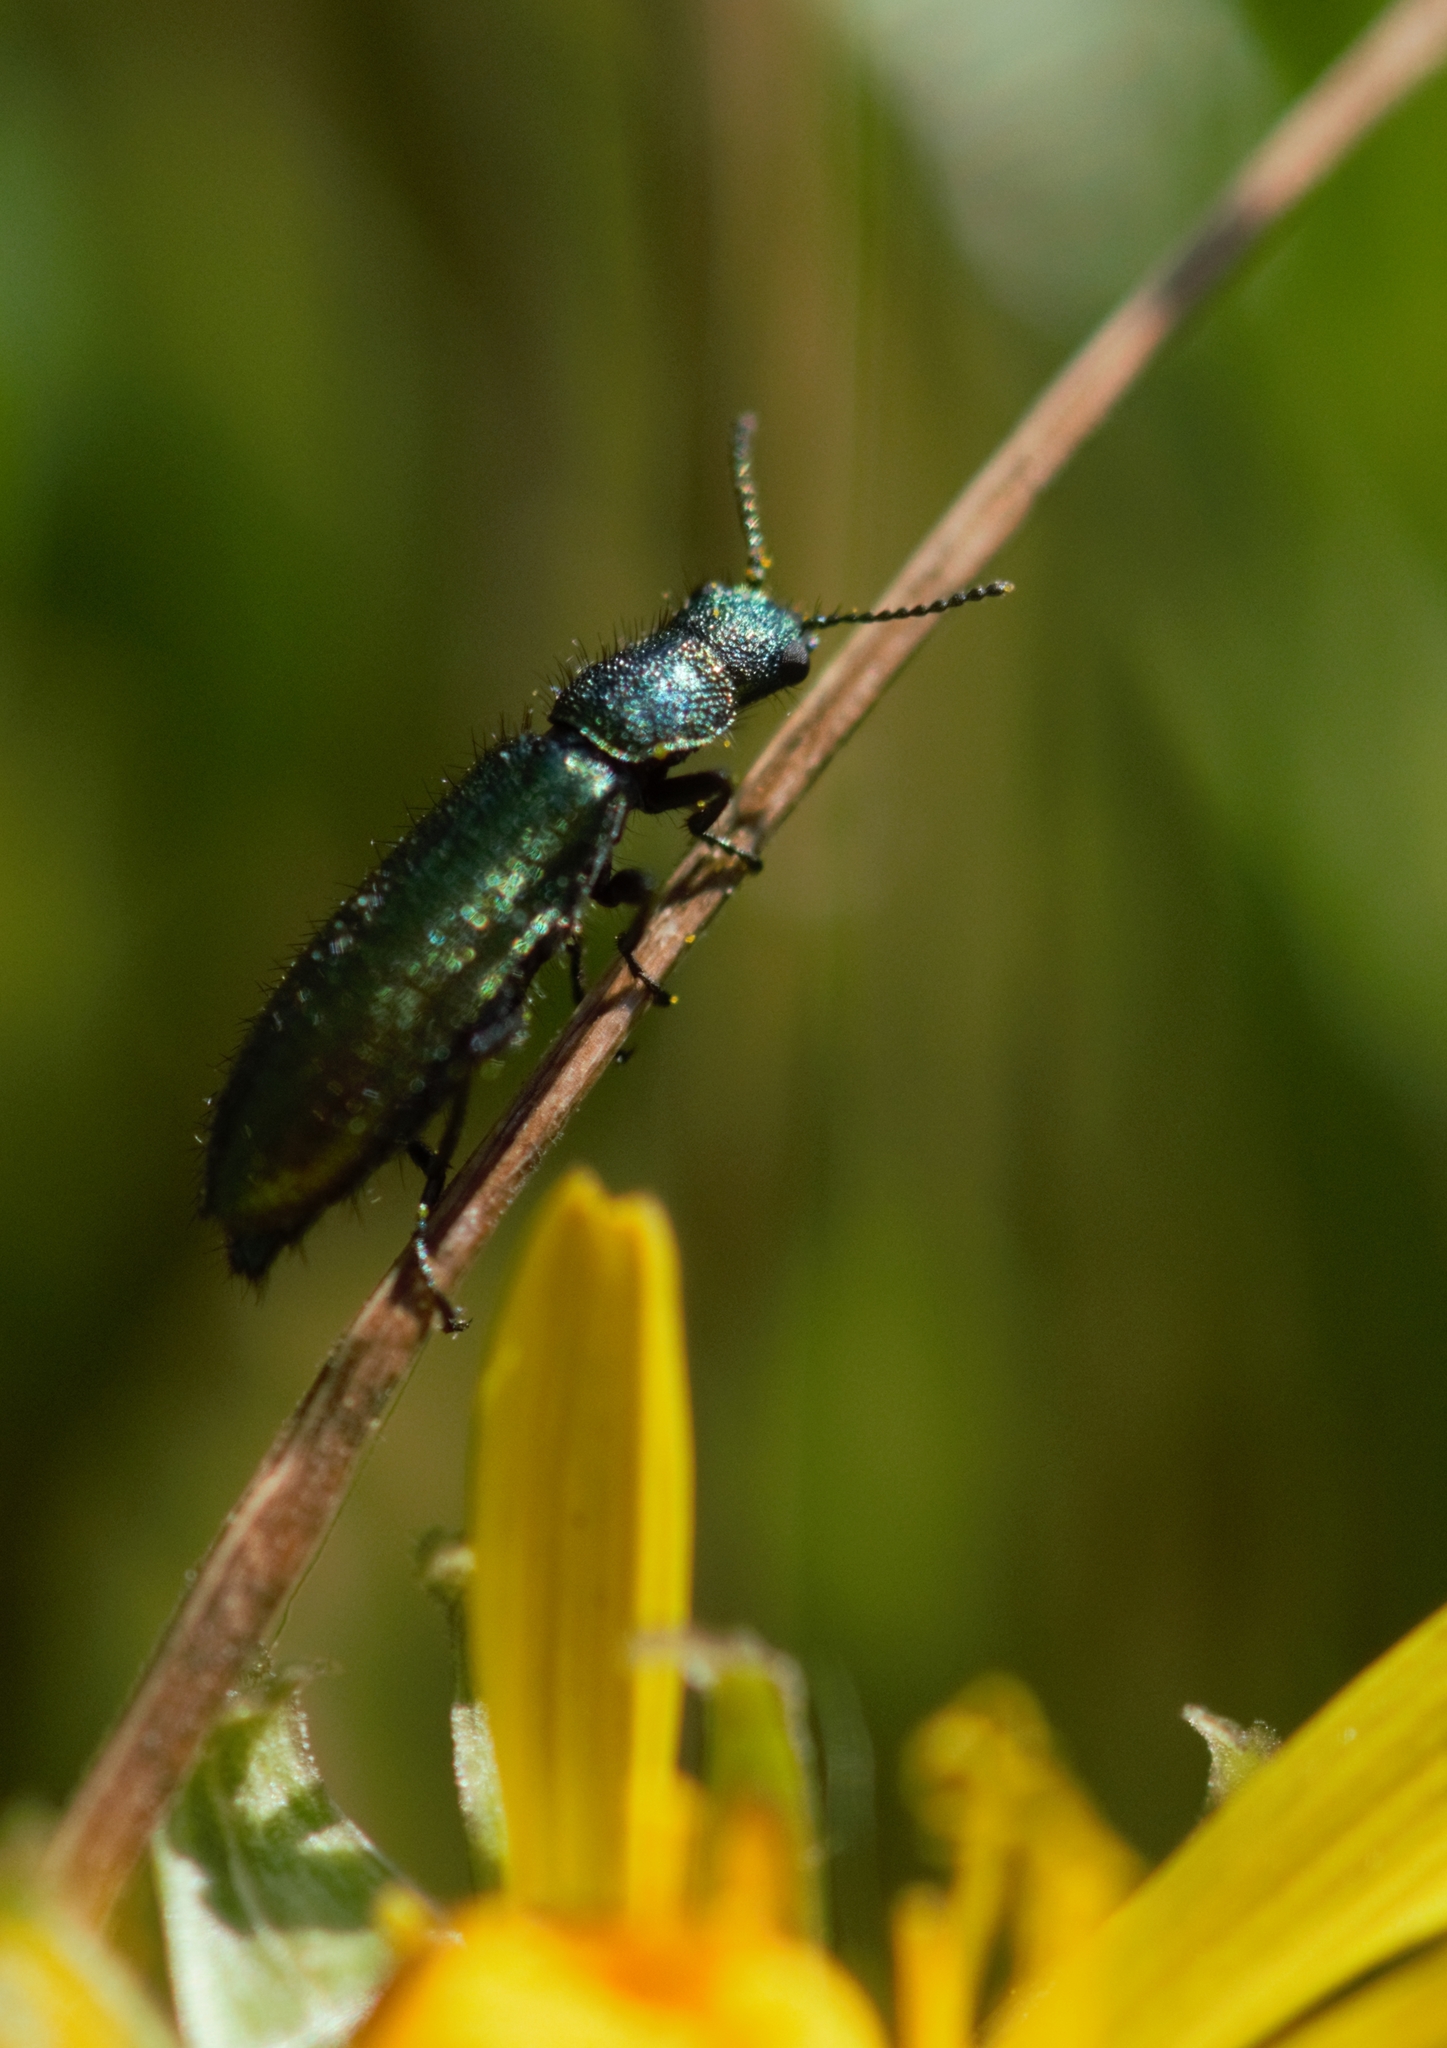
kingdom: Animalia
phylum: Arthropoda
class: Insecta
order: Coleoptera
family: Dasytidae
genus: Psilothrix
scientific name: Psilothrix viridicoerulea
